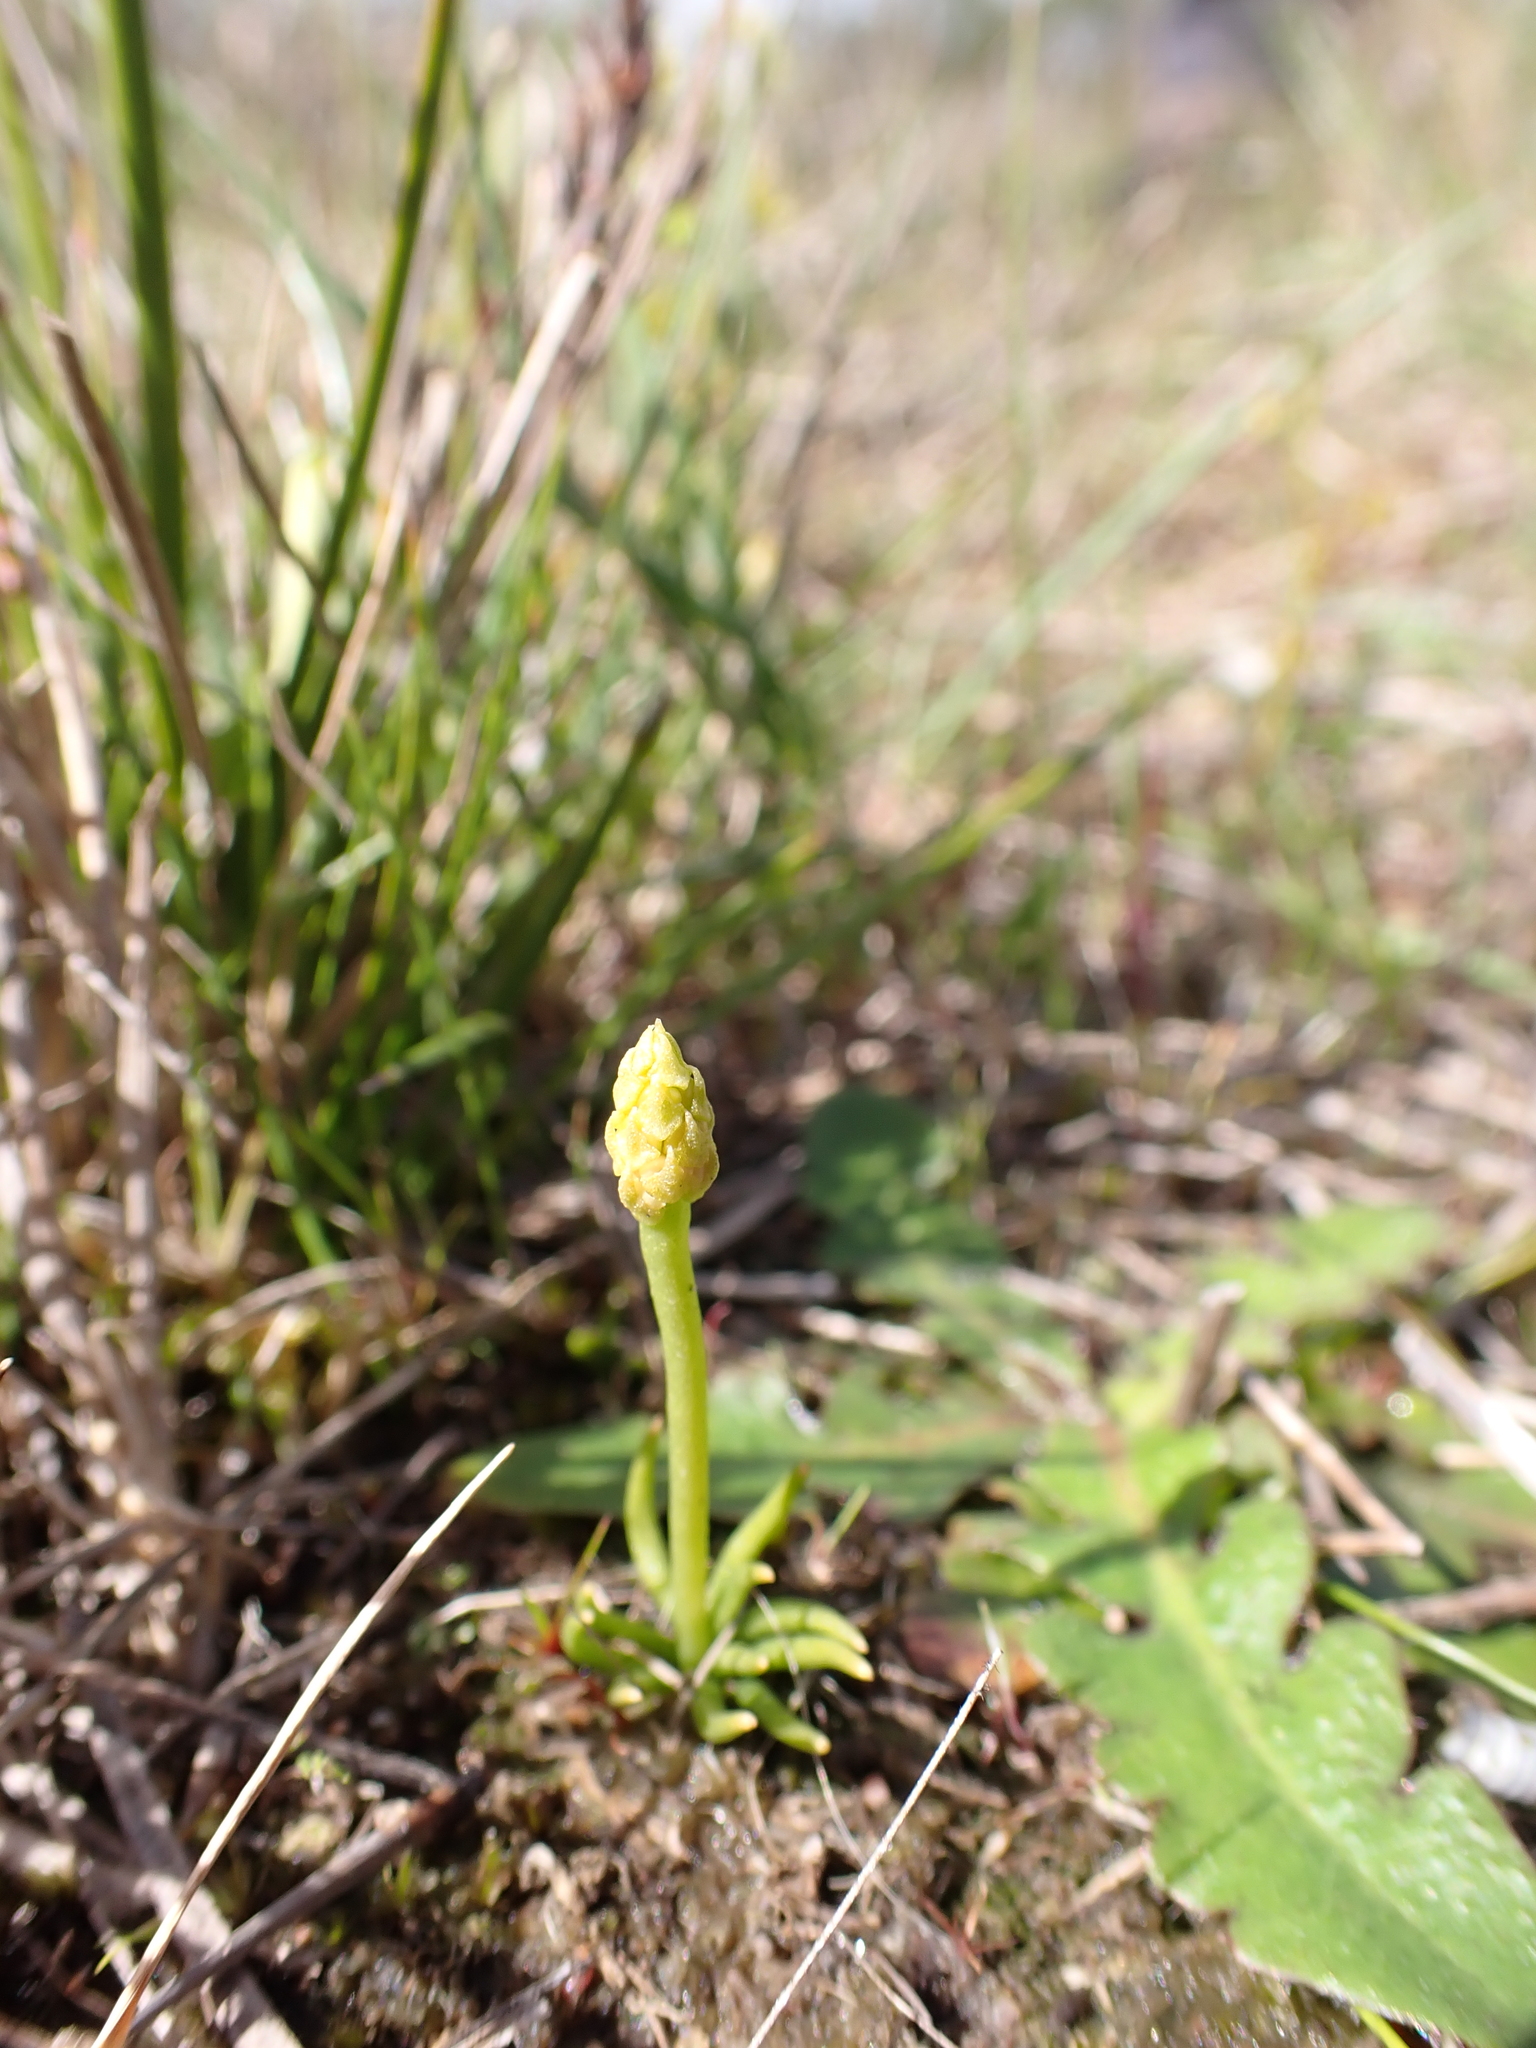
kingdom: Plantae
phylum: Tracheophyta
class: Lycopodiopsida
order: Lycopodiales
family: Lycopodiaceae
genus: Phylloglossum
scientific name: Phylloglossum drummondii
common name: Pigmy-club-moss
